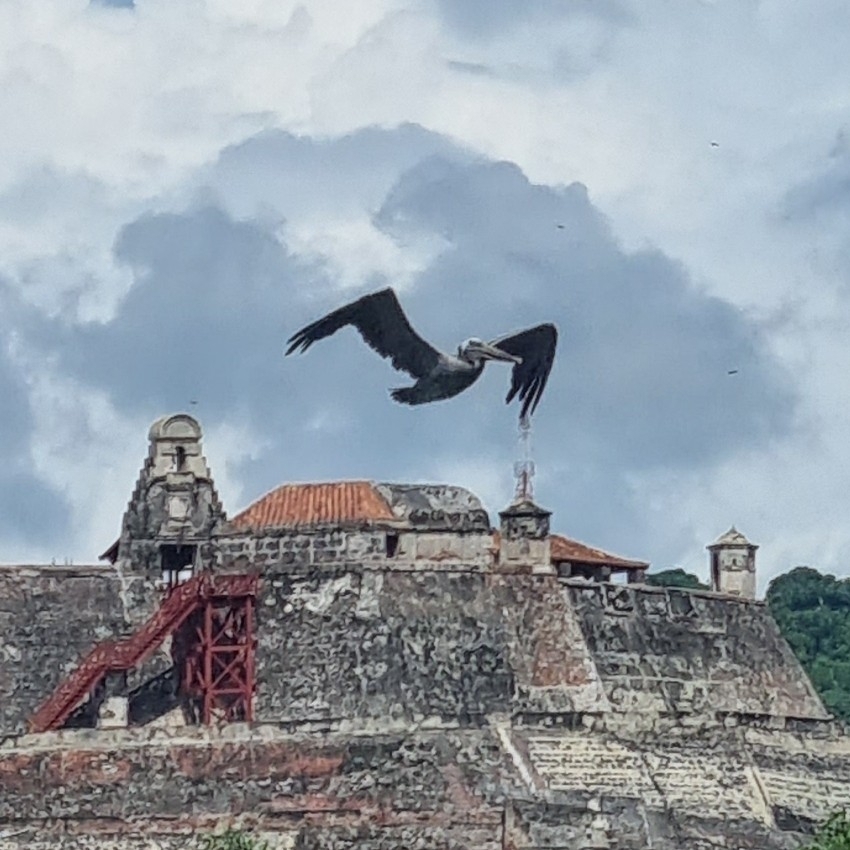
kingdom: Animalia
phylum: Chordata
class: Aves
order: Pelecaniformes
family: Pelecanidae
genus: Pelecanus
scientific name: Pelecanus occidentalis
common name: Brown pelican
